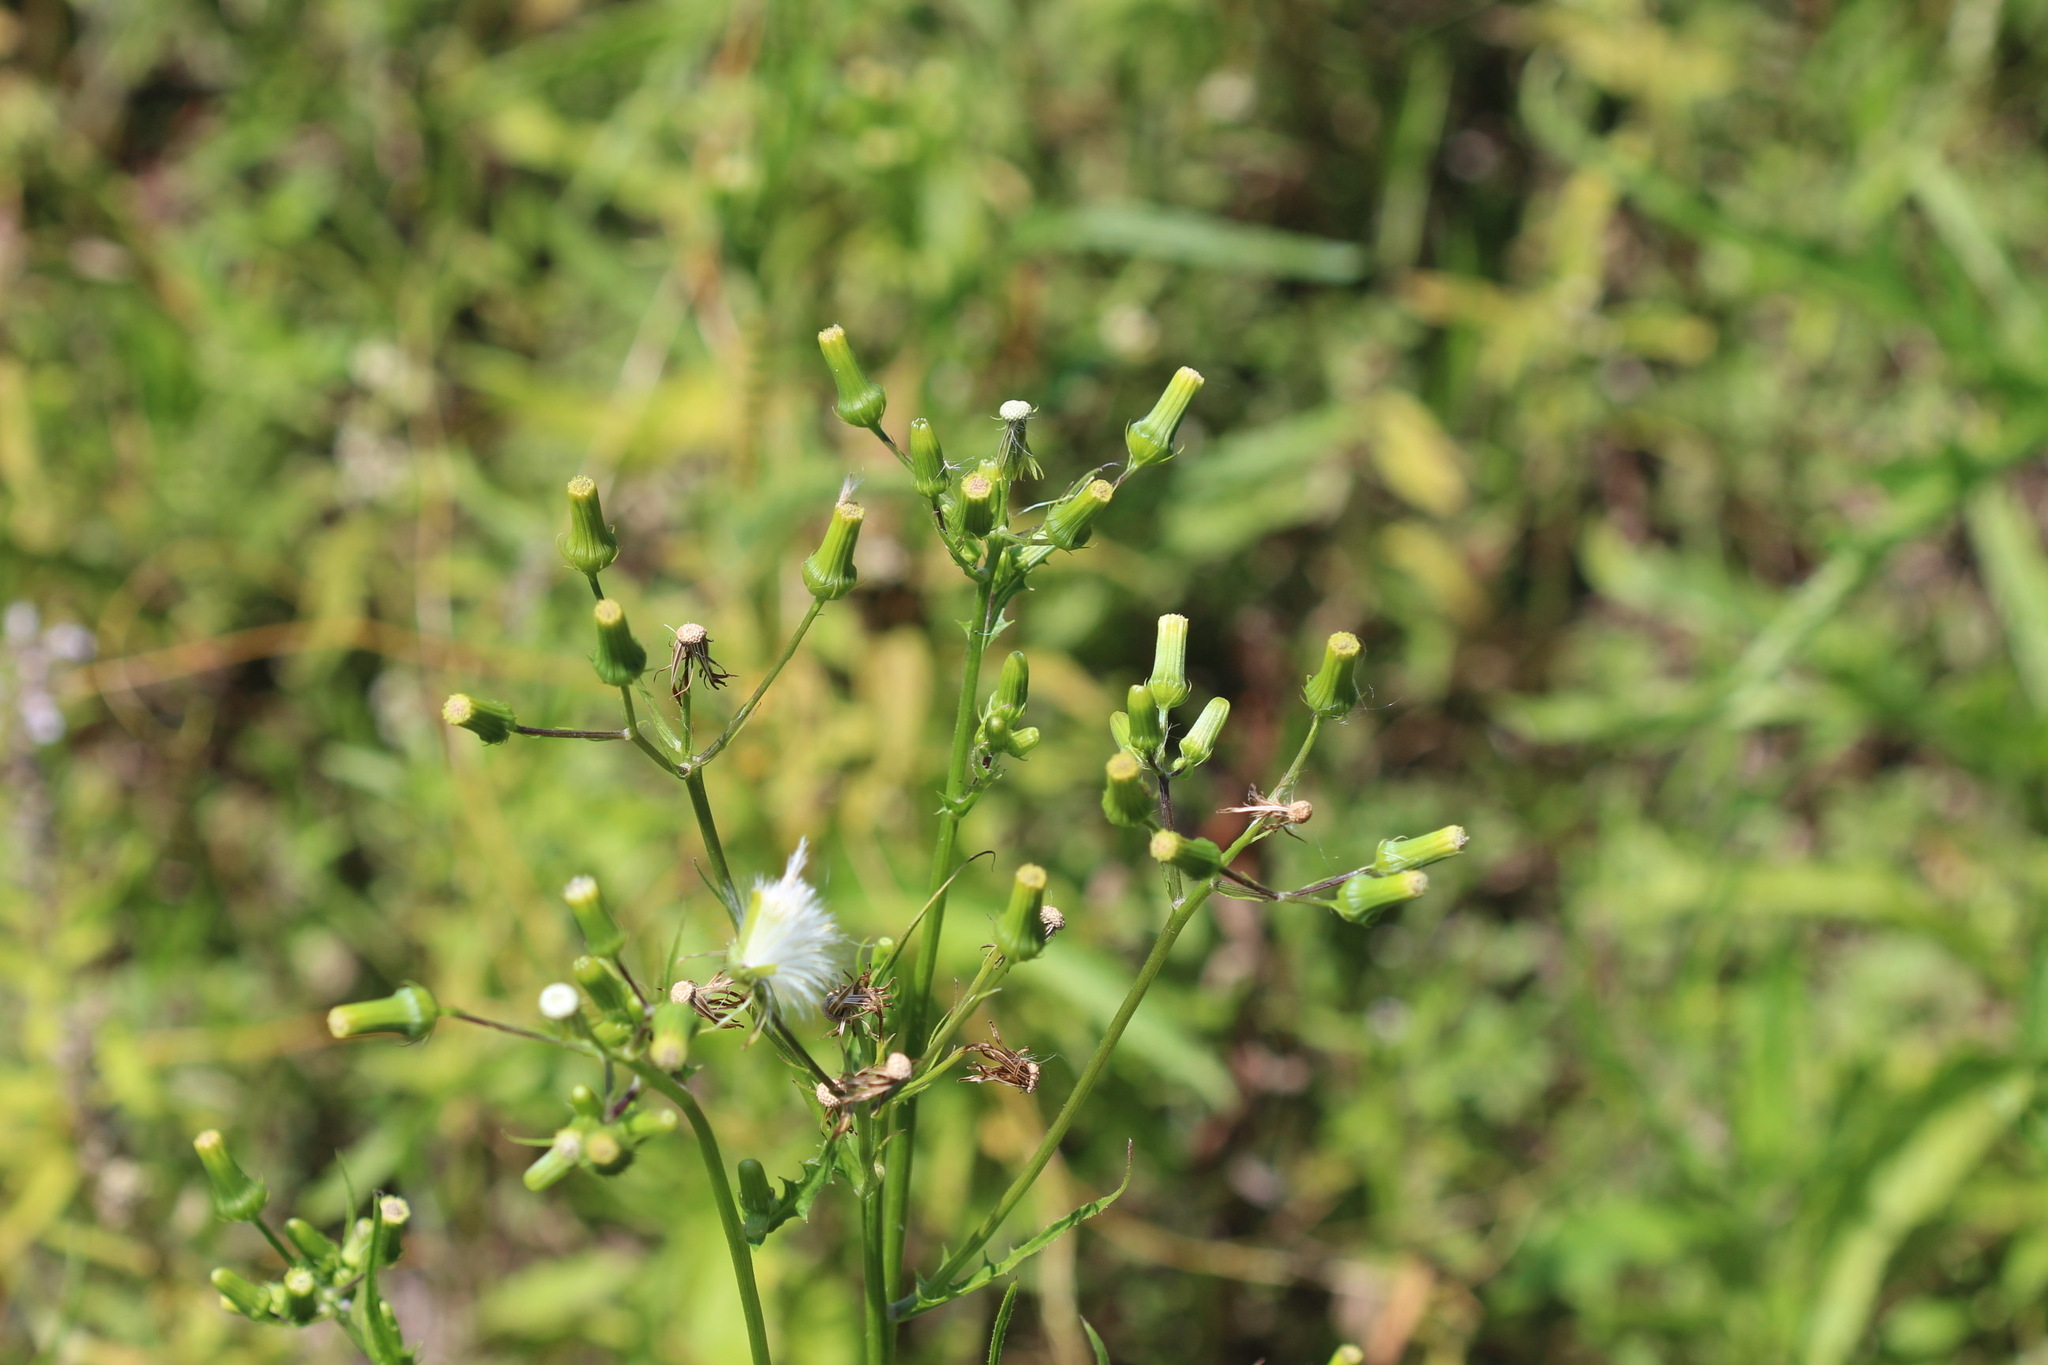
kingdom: Plantae
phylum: Tracheophyta
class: Magnoliopsida
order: Asterales
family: Asteraceae
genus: Erechtites
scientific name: Erechtites hieraciifolius
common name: American burnweed
